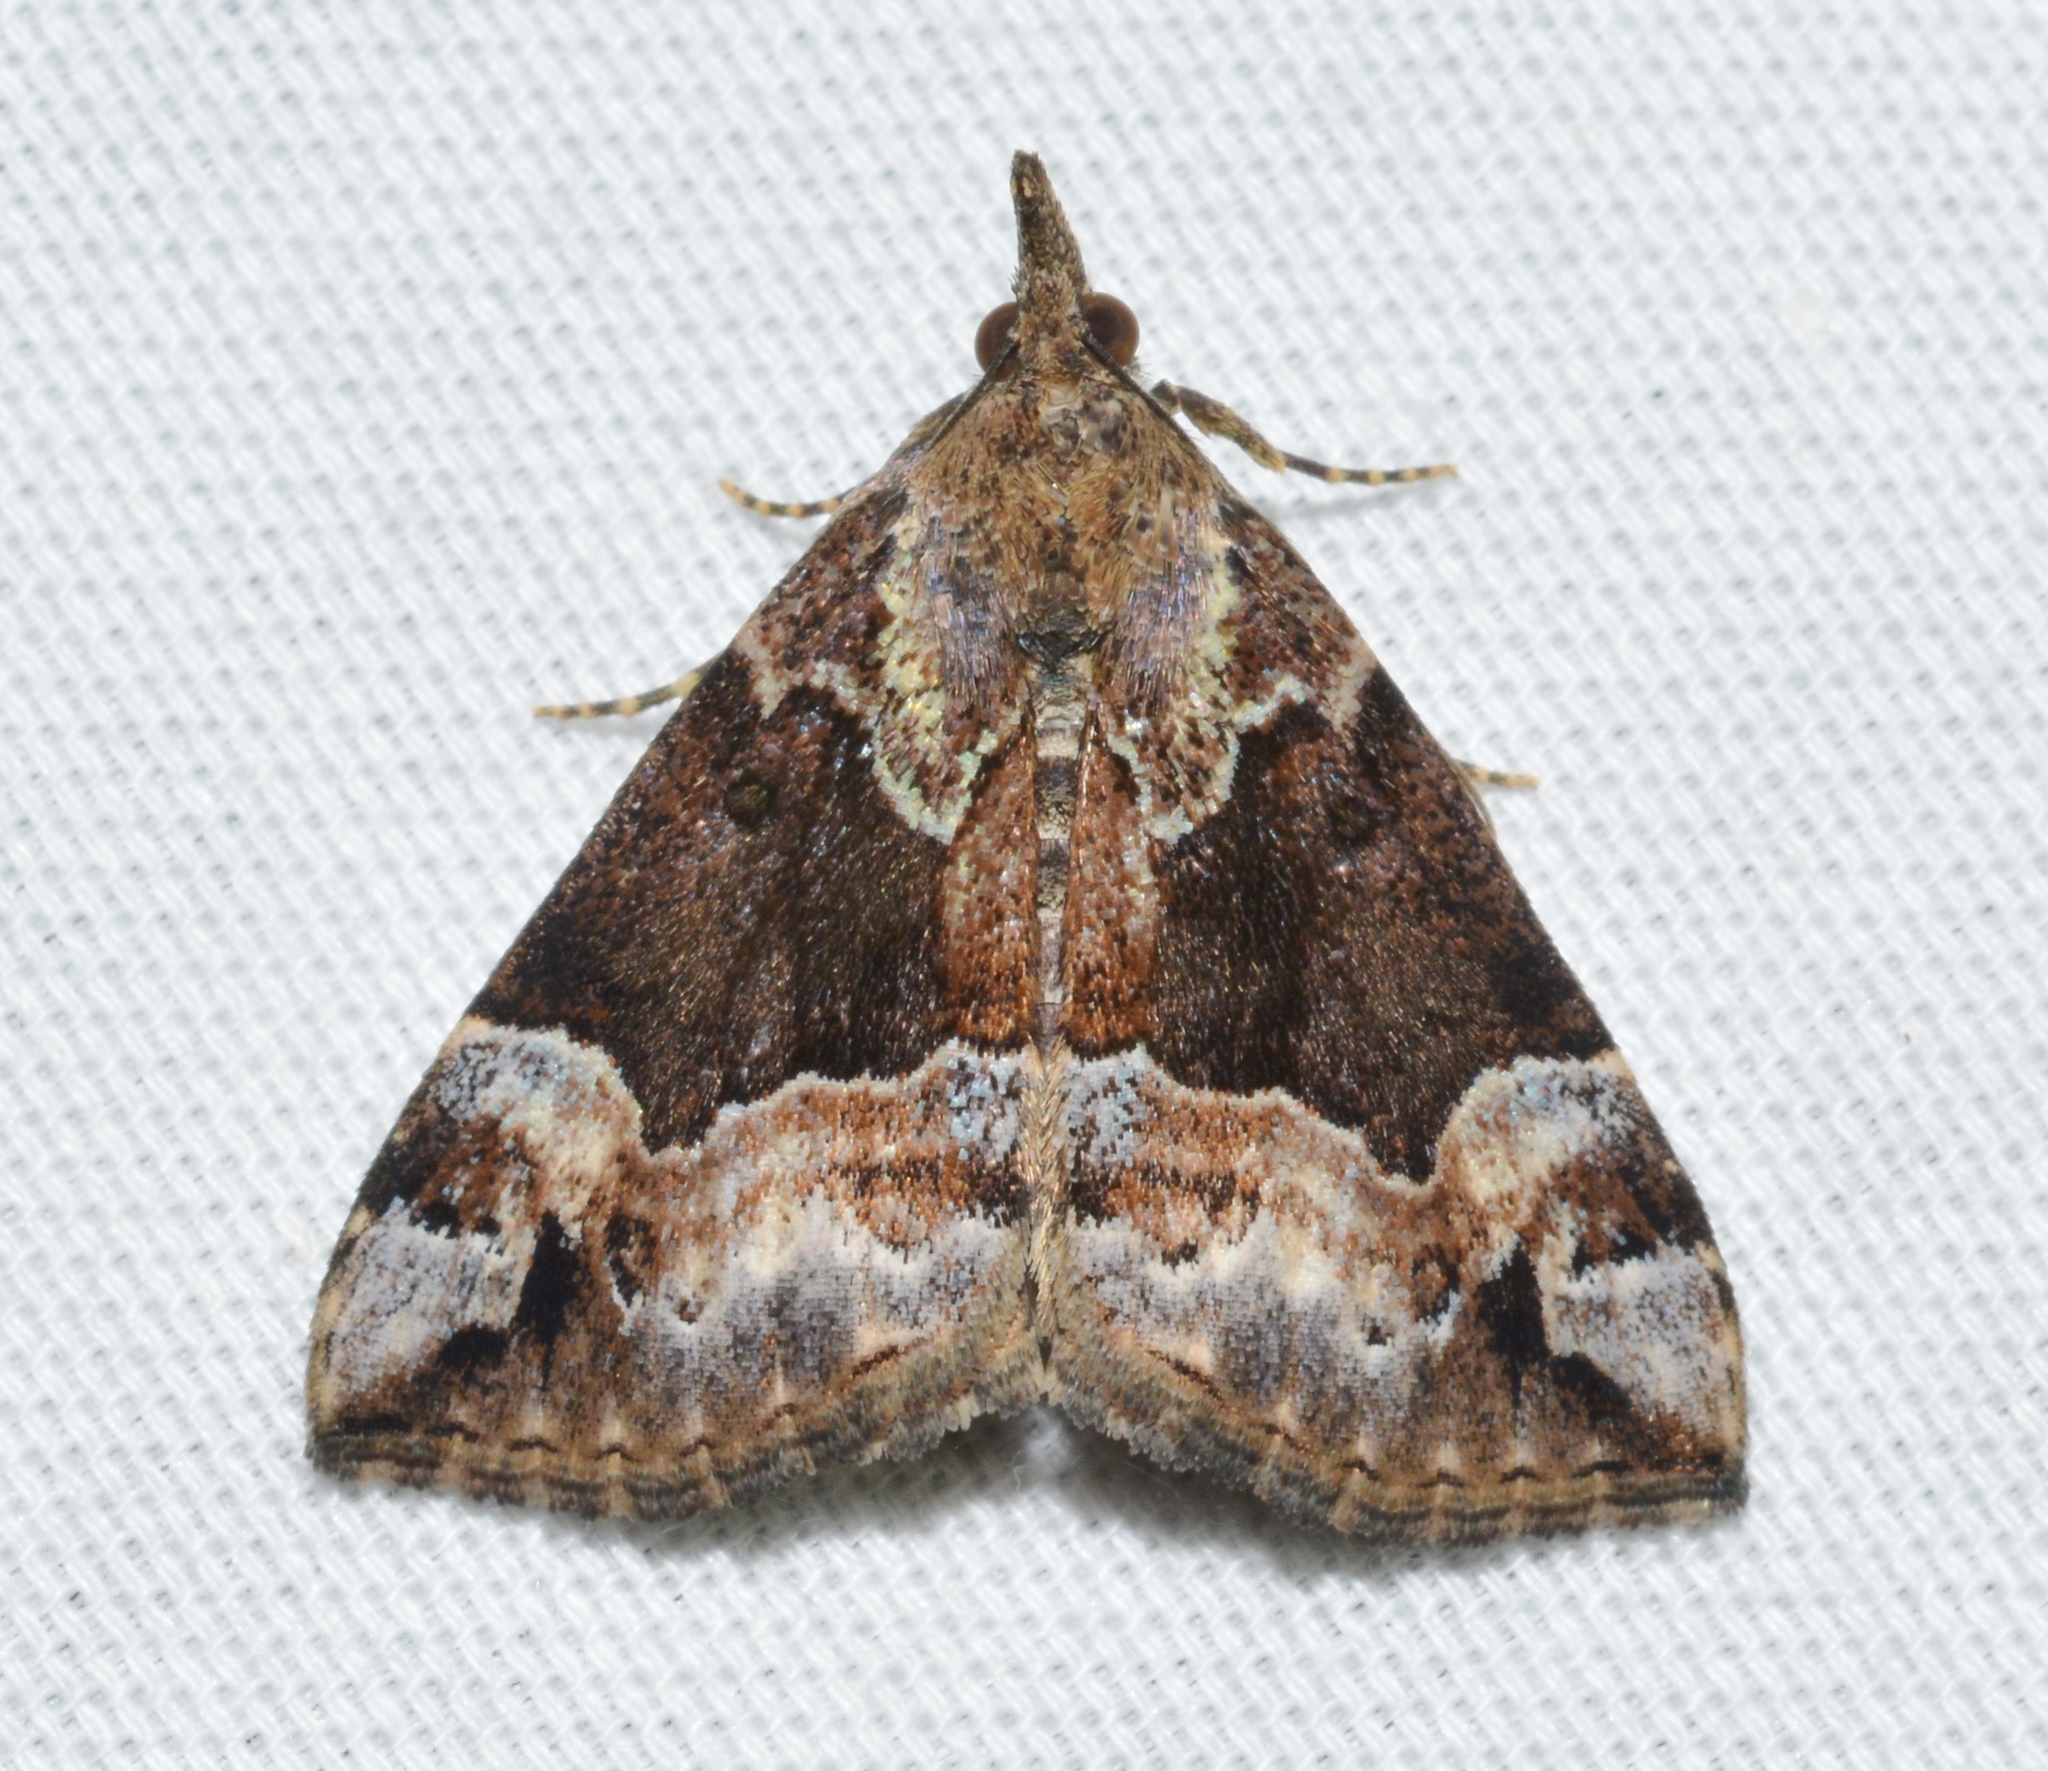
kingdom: Animalia
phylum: Arthropoda
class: Insecta
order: Lepidoptera
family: Erebidae
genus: Hypena
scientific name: Hypena palparia
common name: Mottled bomolocha moth
